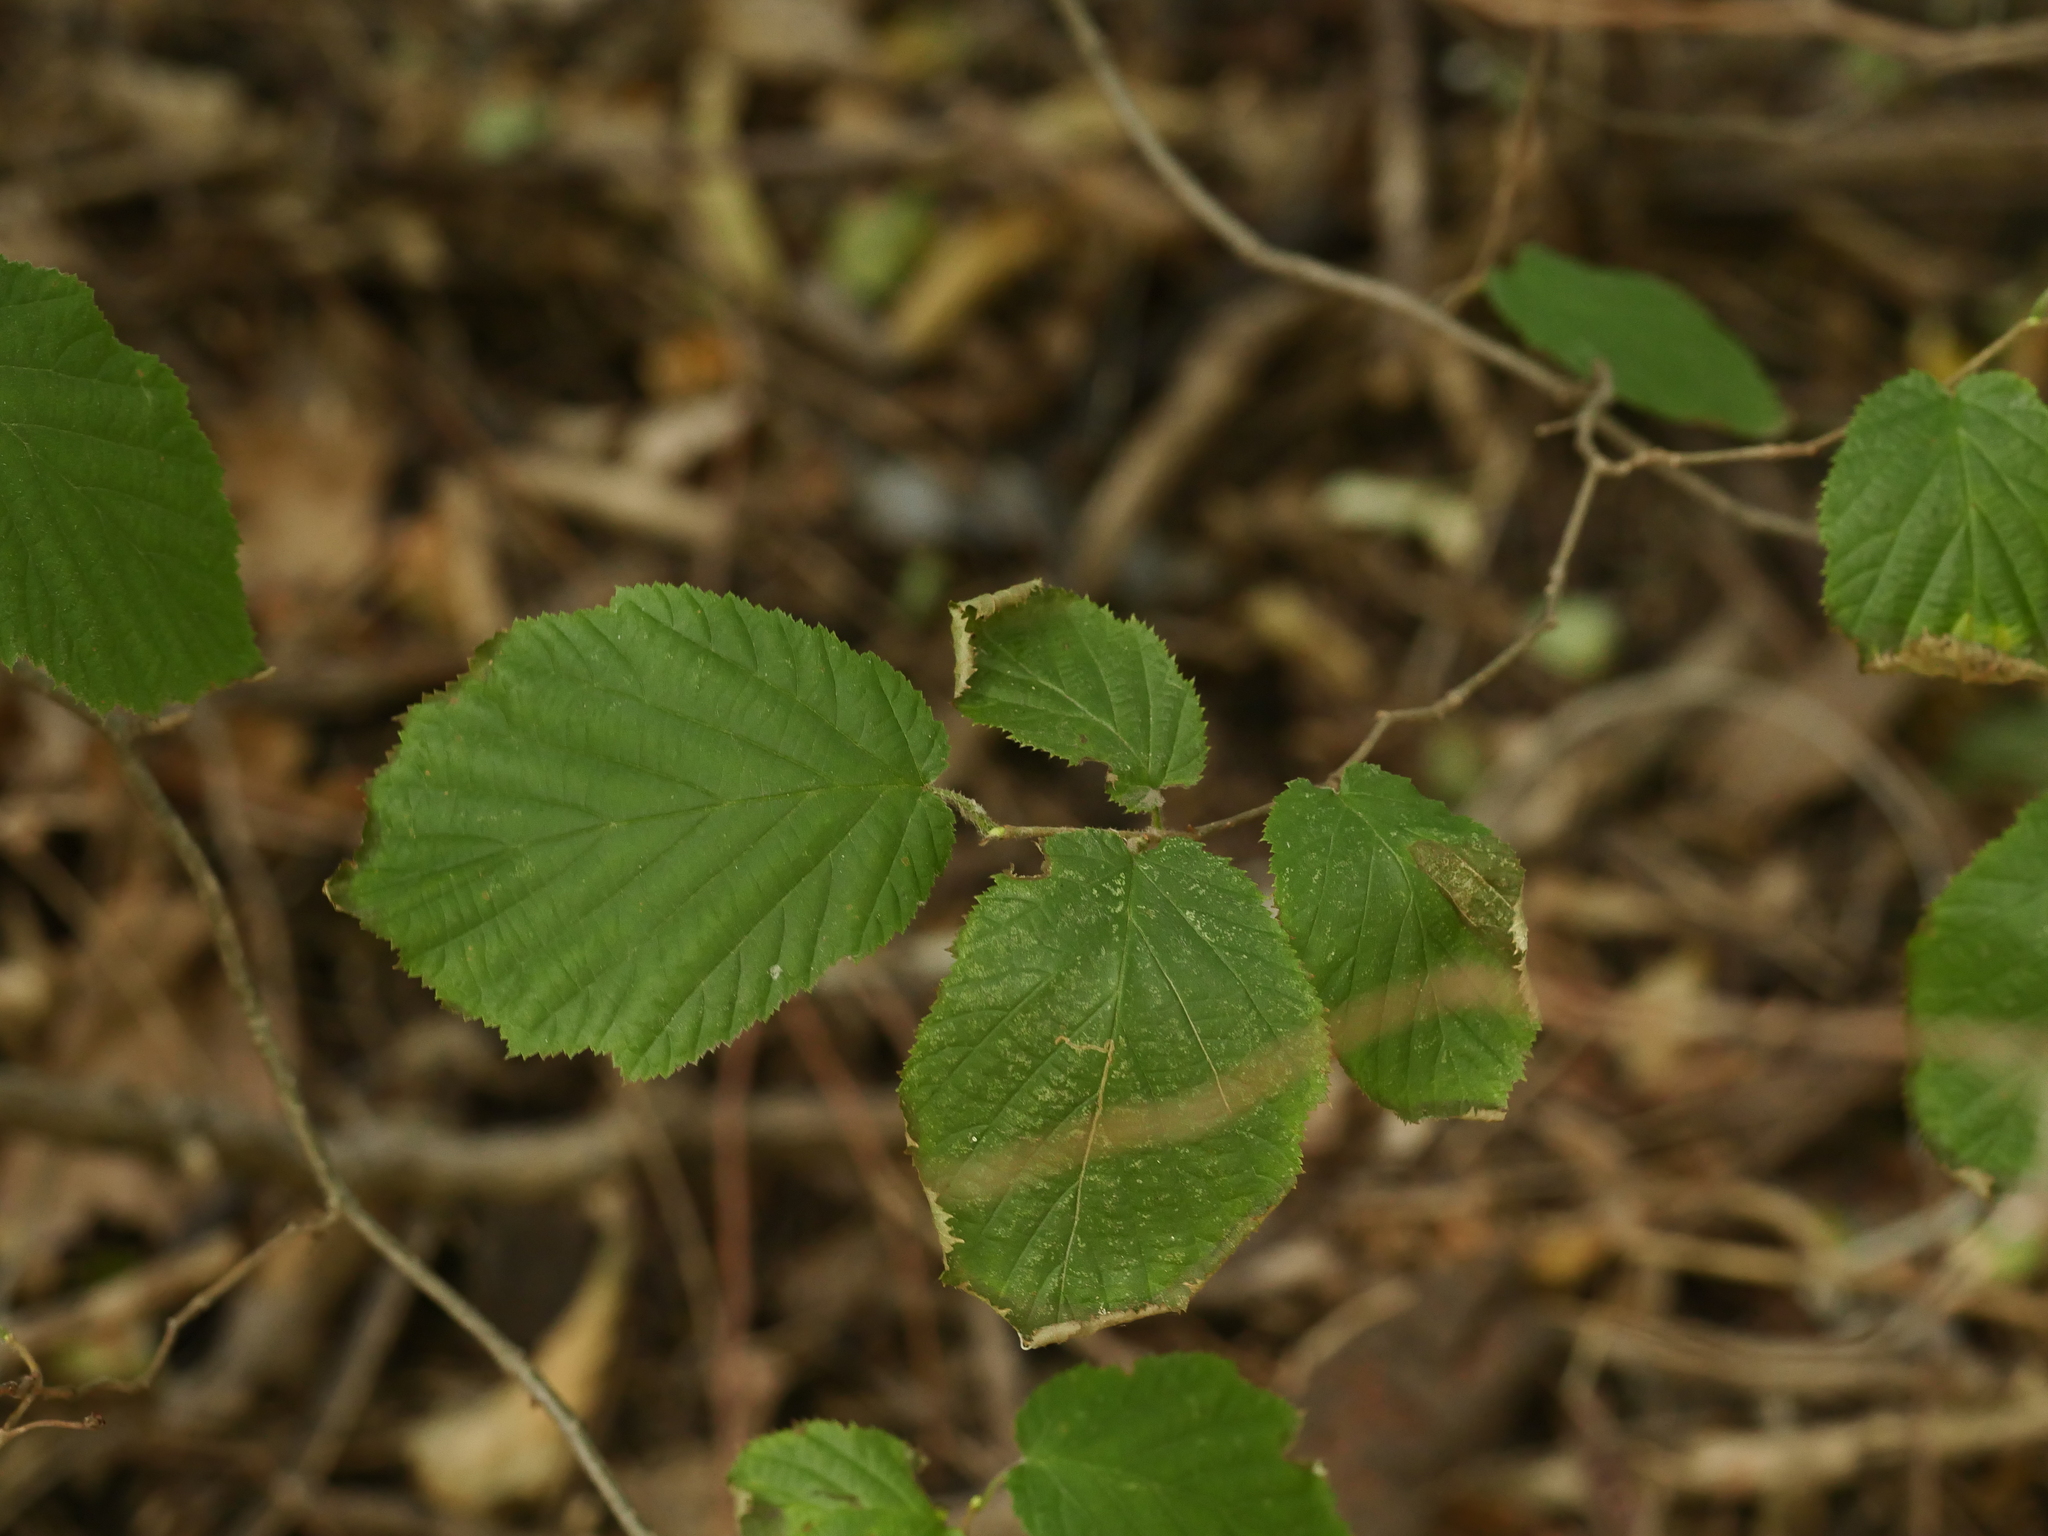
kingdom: Plantae
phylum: Tracheophyta
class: Magnoliopsida
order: Fagales
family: Betulaceae
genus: Corylus
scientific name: Corylus avellana
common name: European hazel
